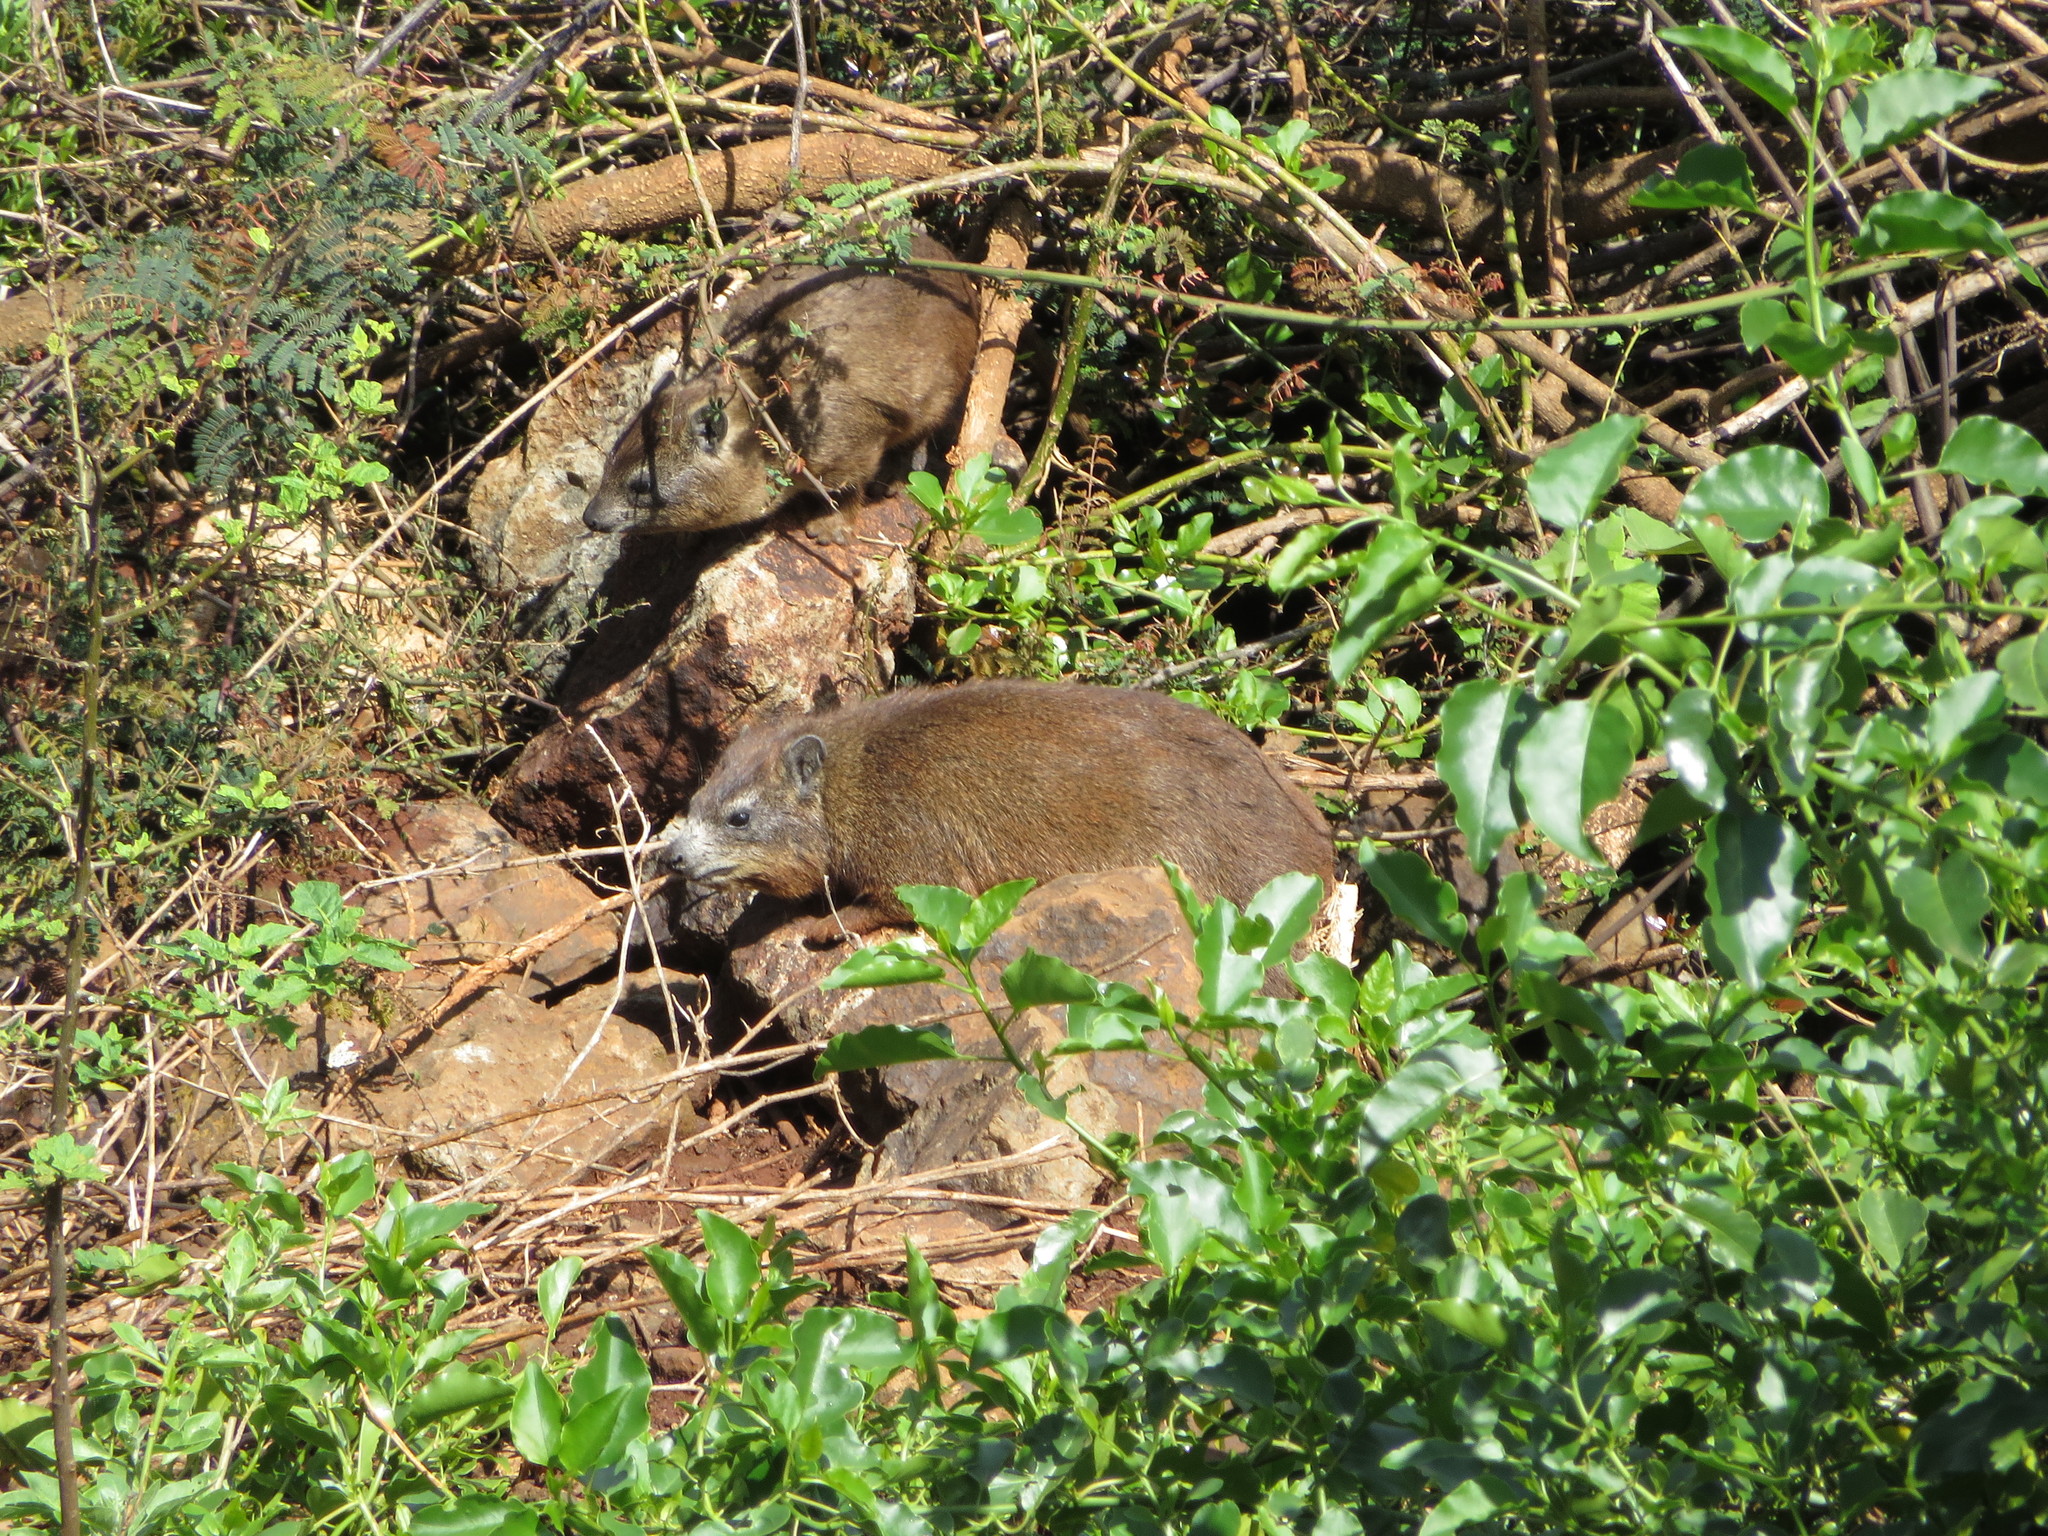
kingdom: Animalia
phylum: Chordata
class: Mammalia
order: Hyracoidea
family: Procaviidae
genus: Procavia
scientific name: Procavia capensis
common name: Rock hyrax
